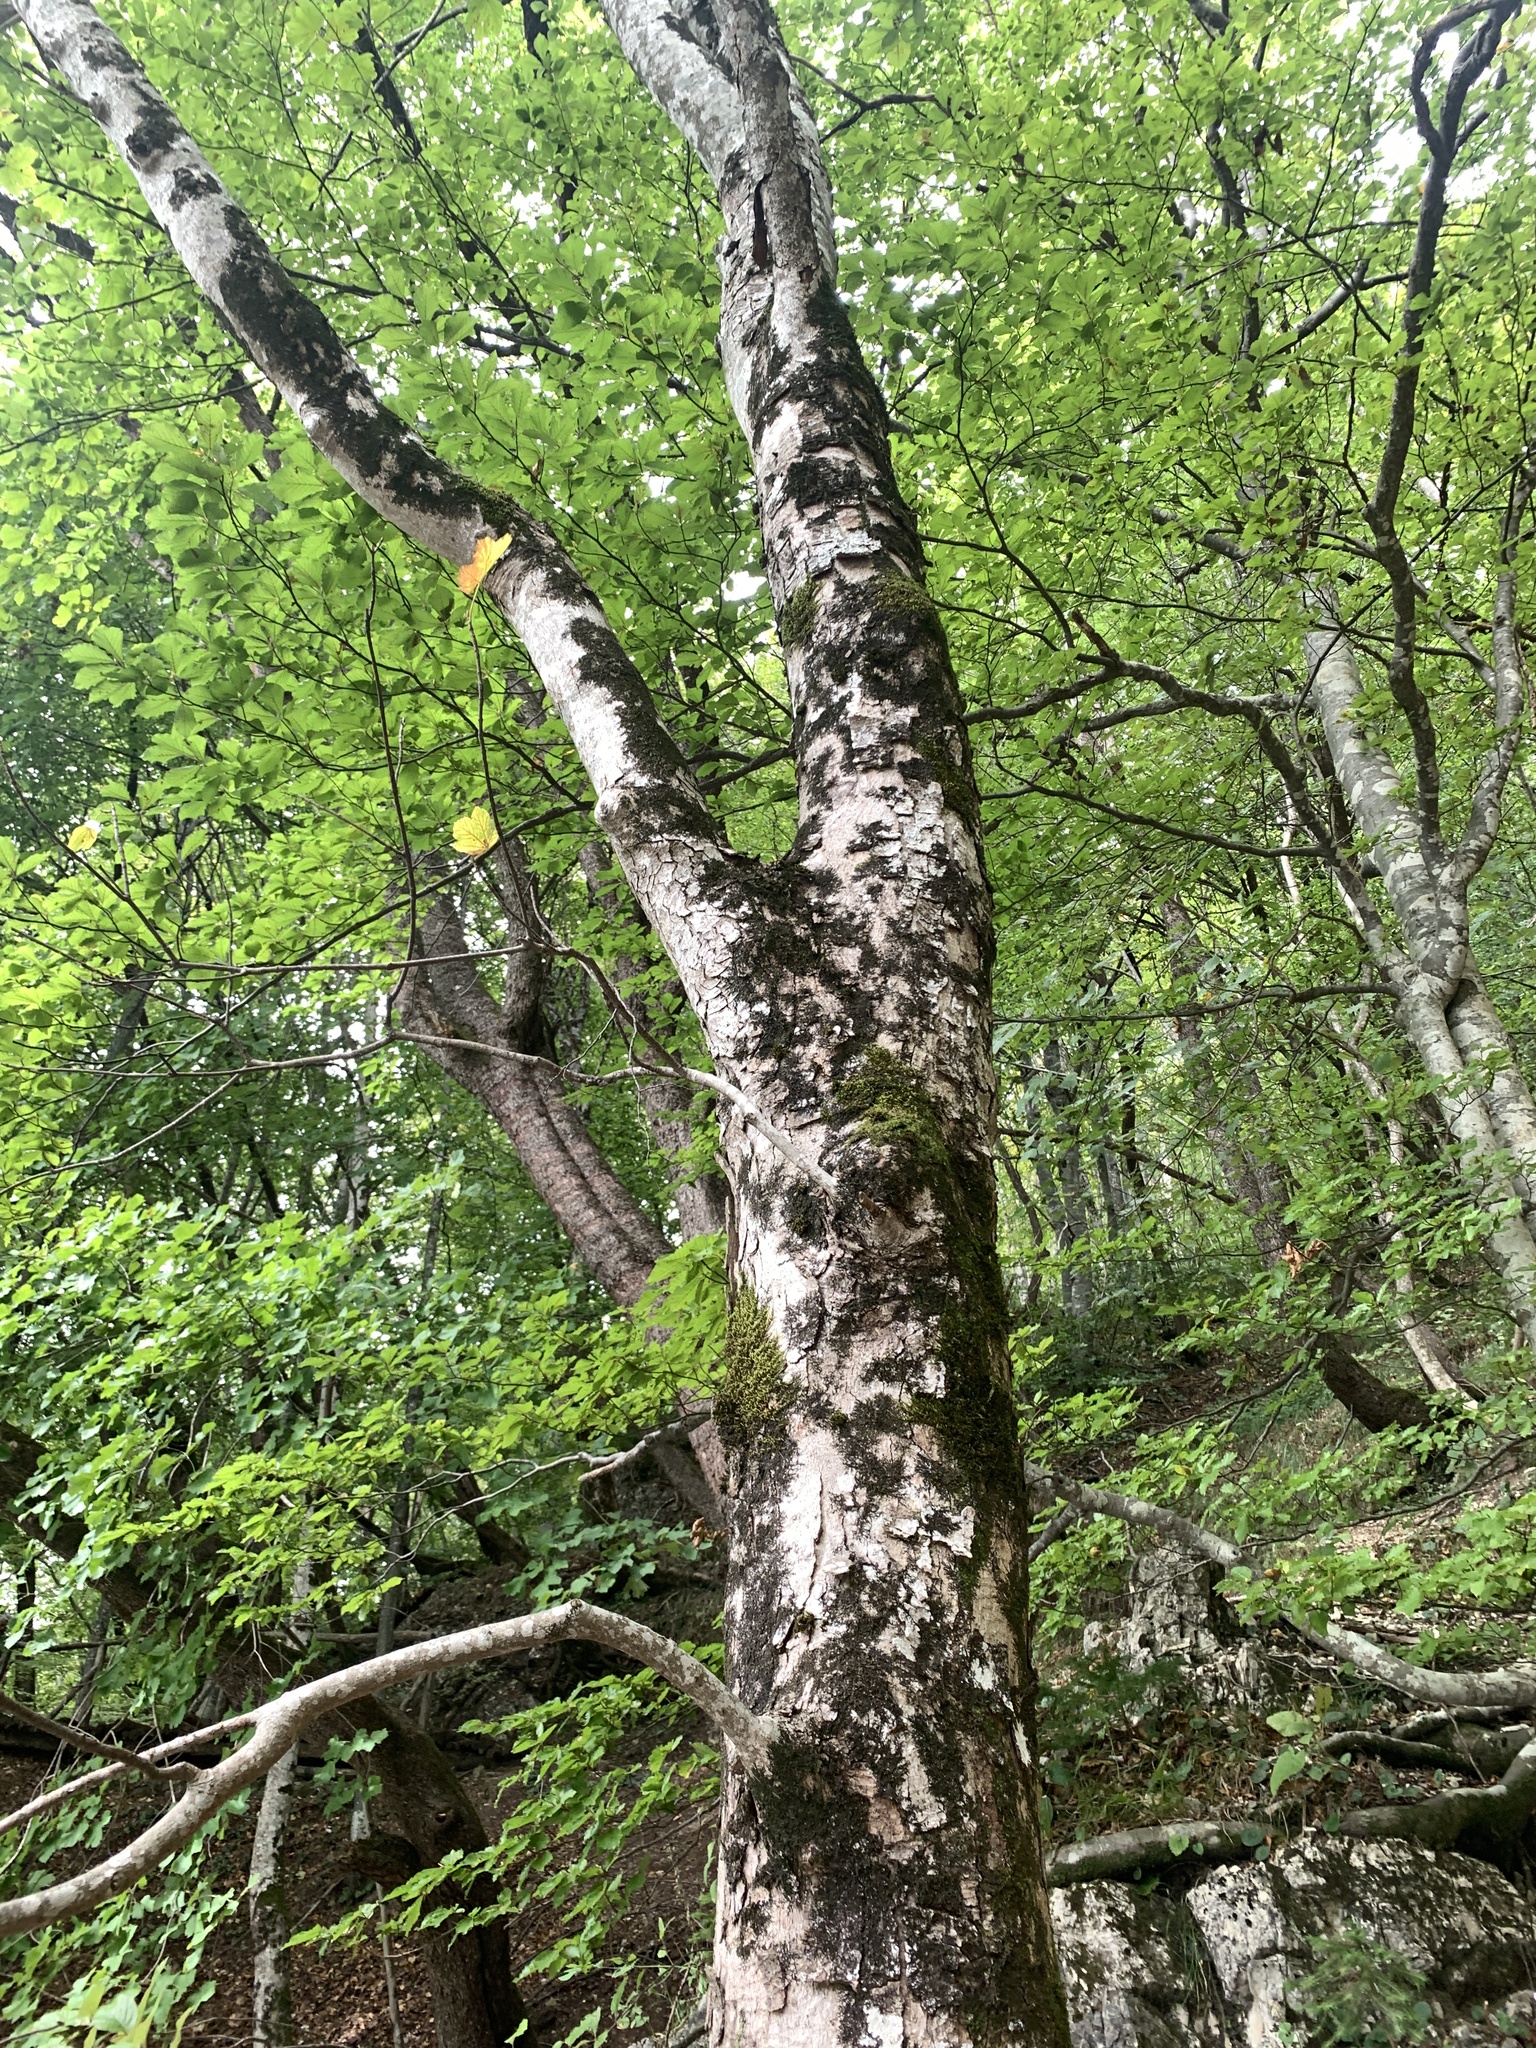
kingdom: Plantae
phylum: Tracheophyta
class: Magnoliopsida
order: Sapindales
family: Sapindaceae
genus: Acer
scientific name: Acer obtusatum
